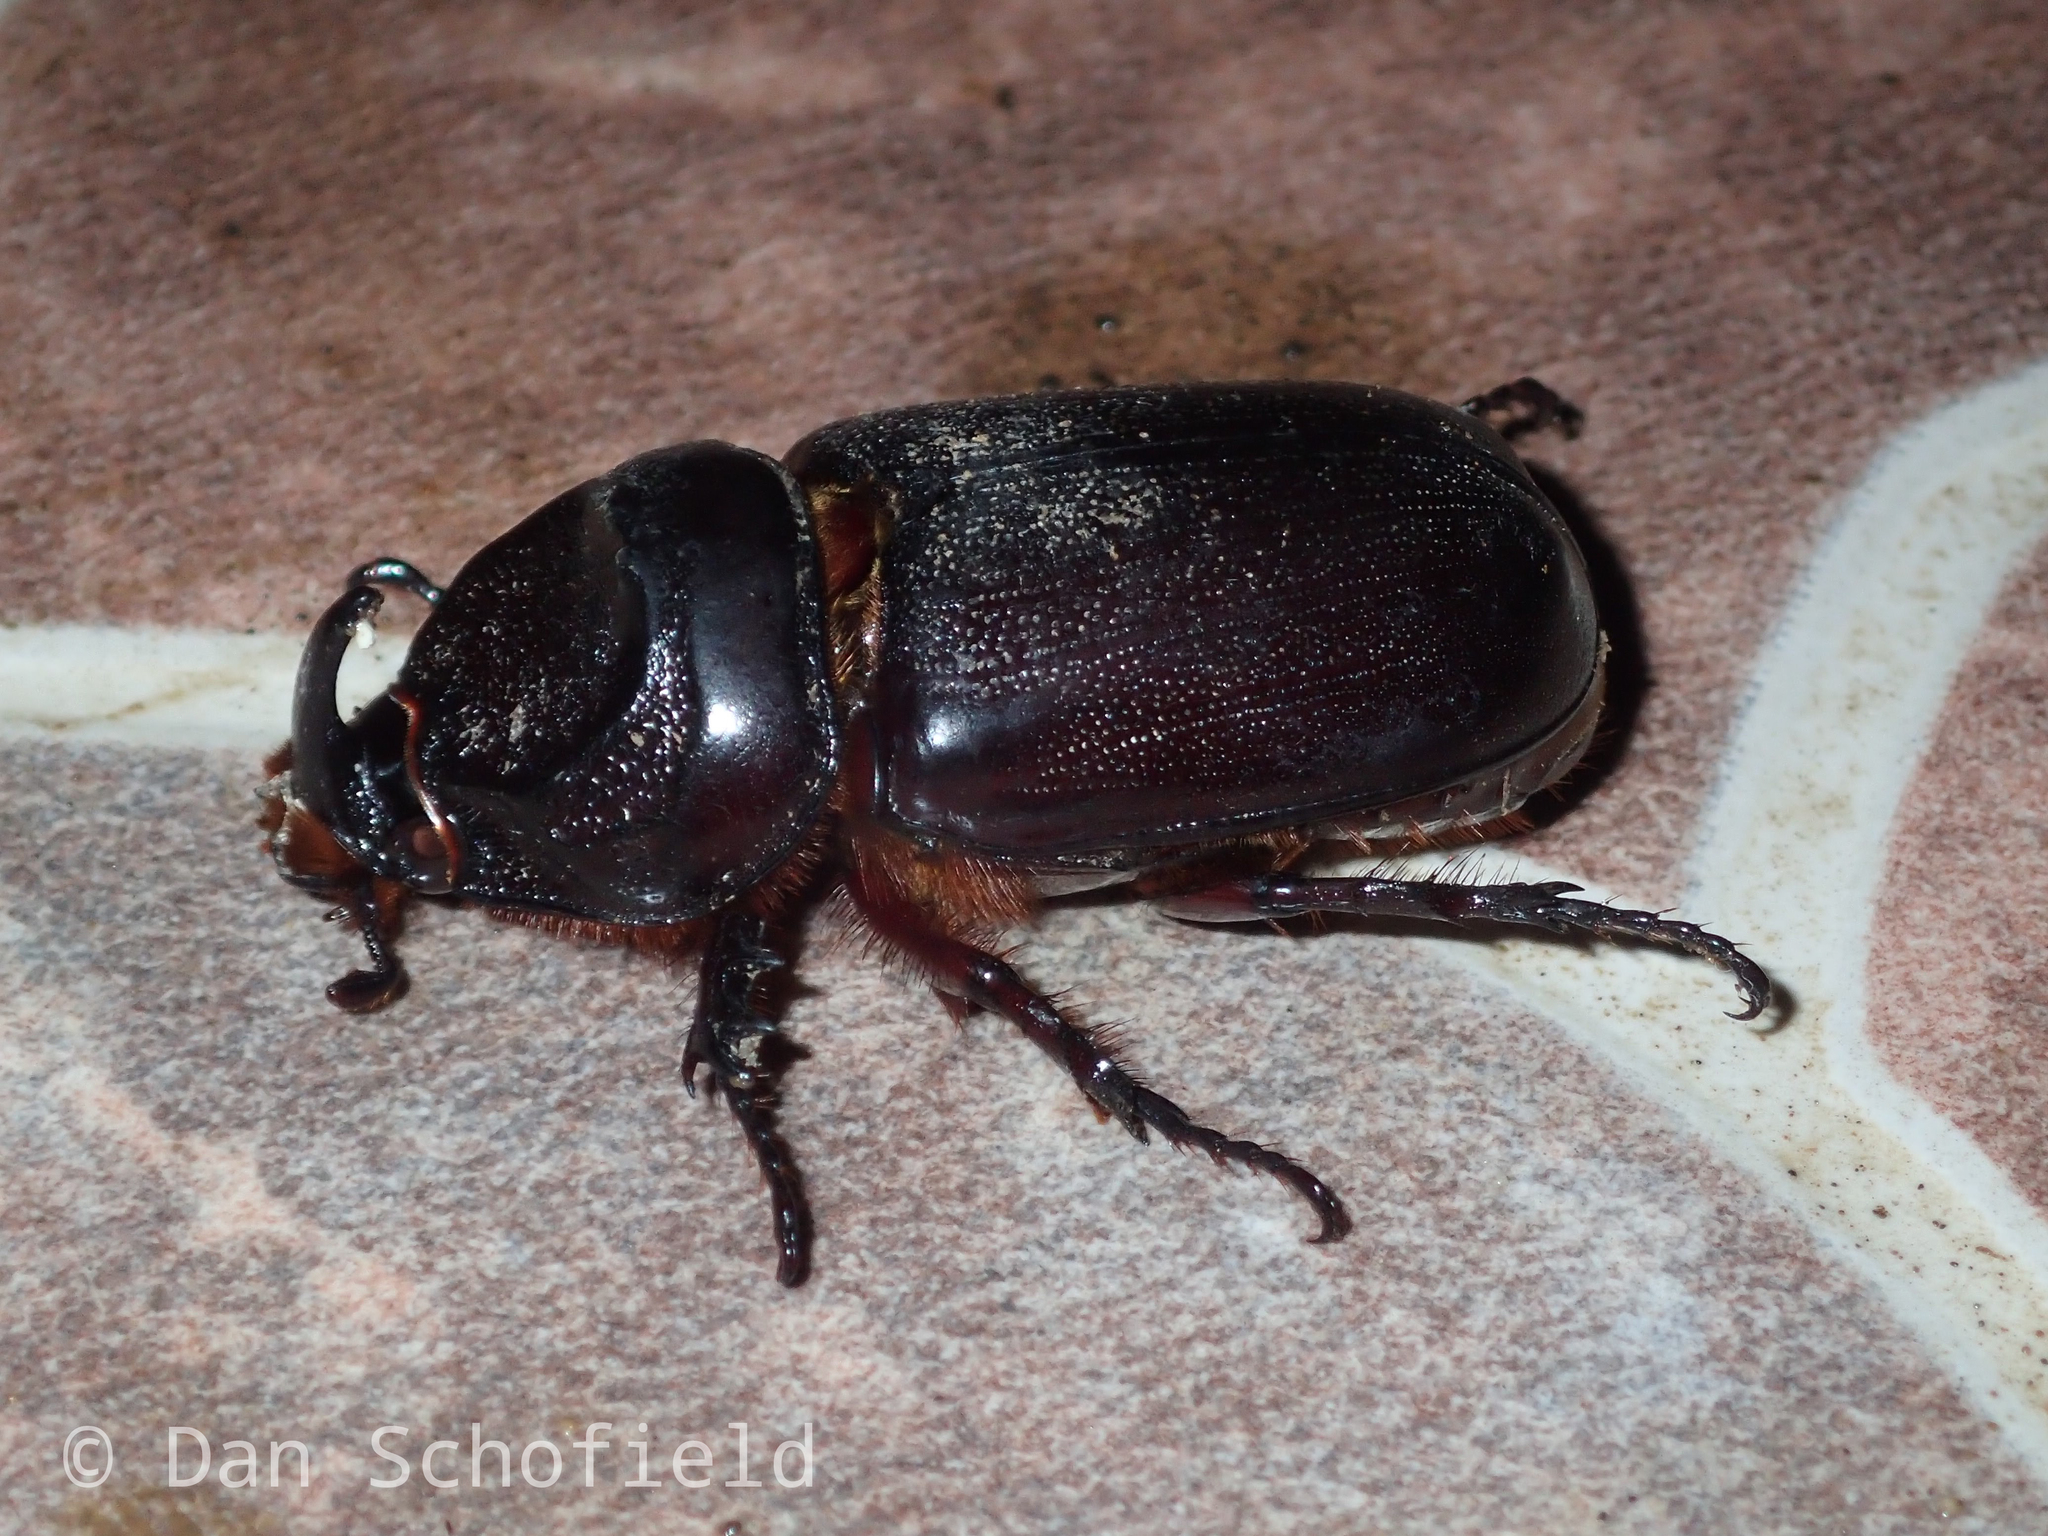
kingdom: Animalia
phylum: Arthropoda
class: Insecta
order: Coleoptera
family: Scarabaeidae
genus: Oryctes
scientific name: Oryctes rhinoceros
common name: Coconut rhinoceros beetle
